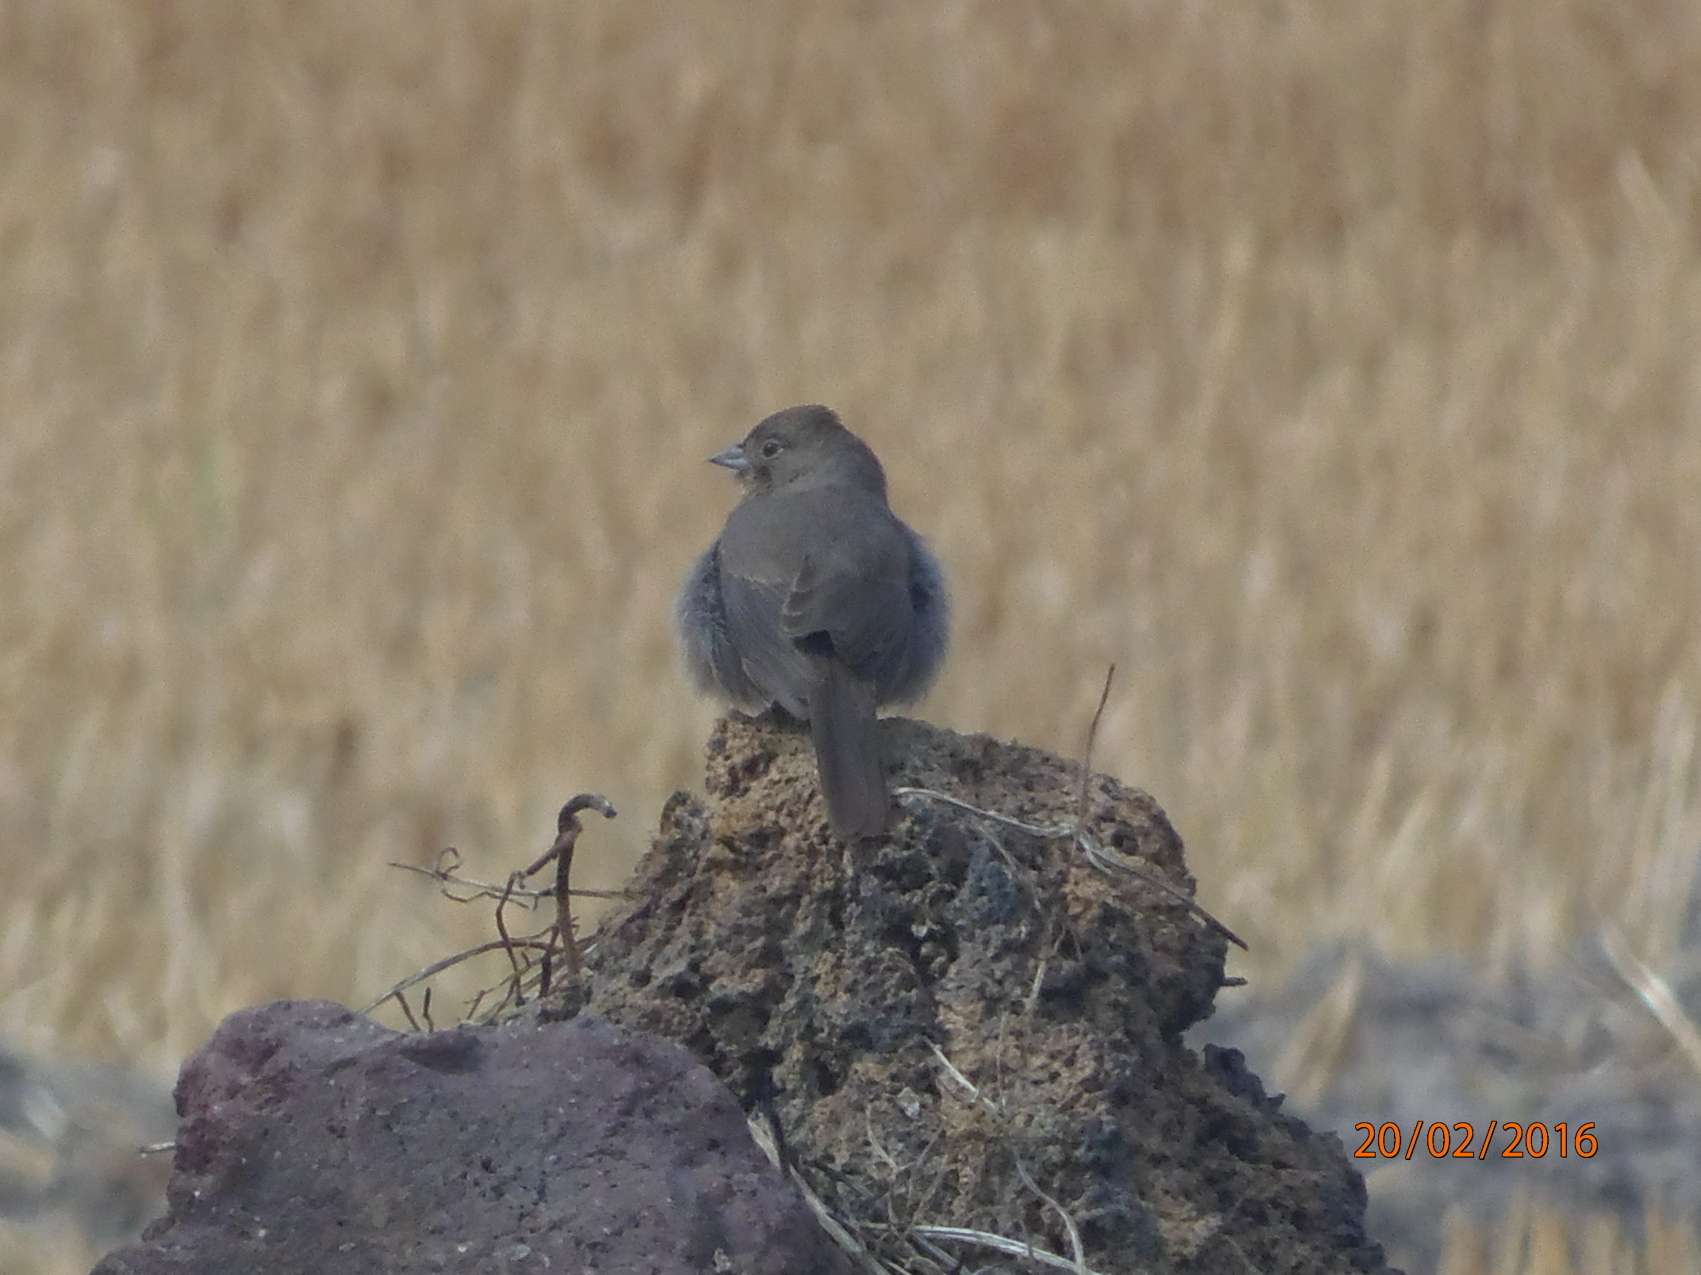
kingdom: Animalia
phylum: Chordata
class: Aves
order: Passeriformes
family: Passerellidae
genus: Melozone
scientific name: Melozone fusca
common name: Canyon towhee
